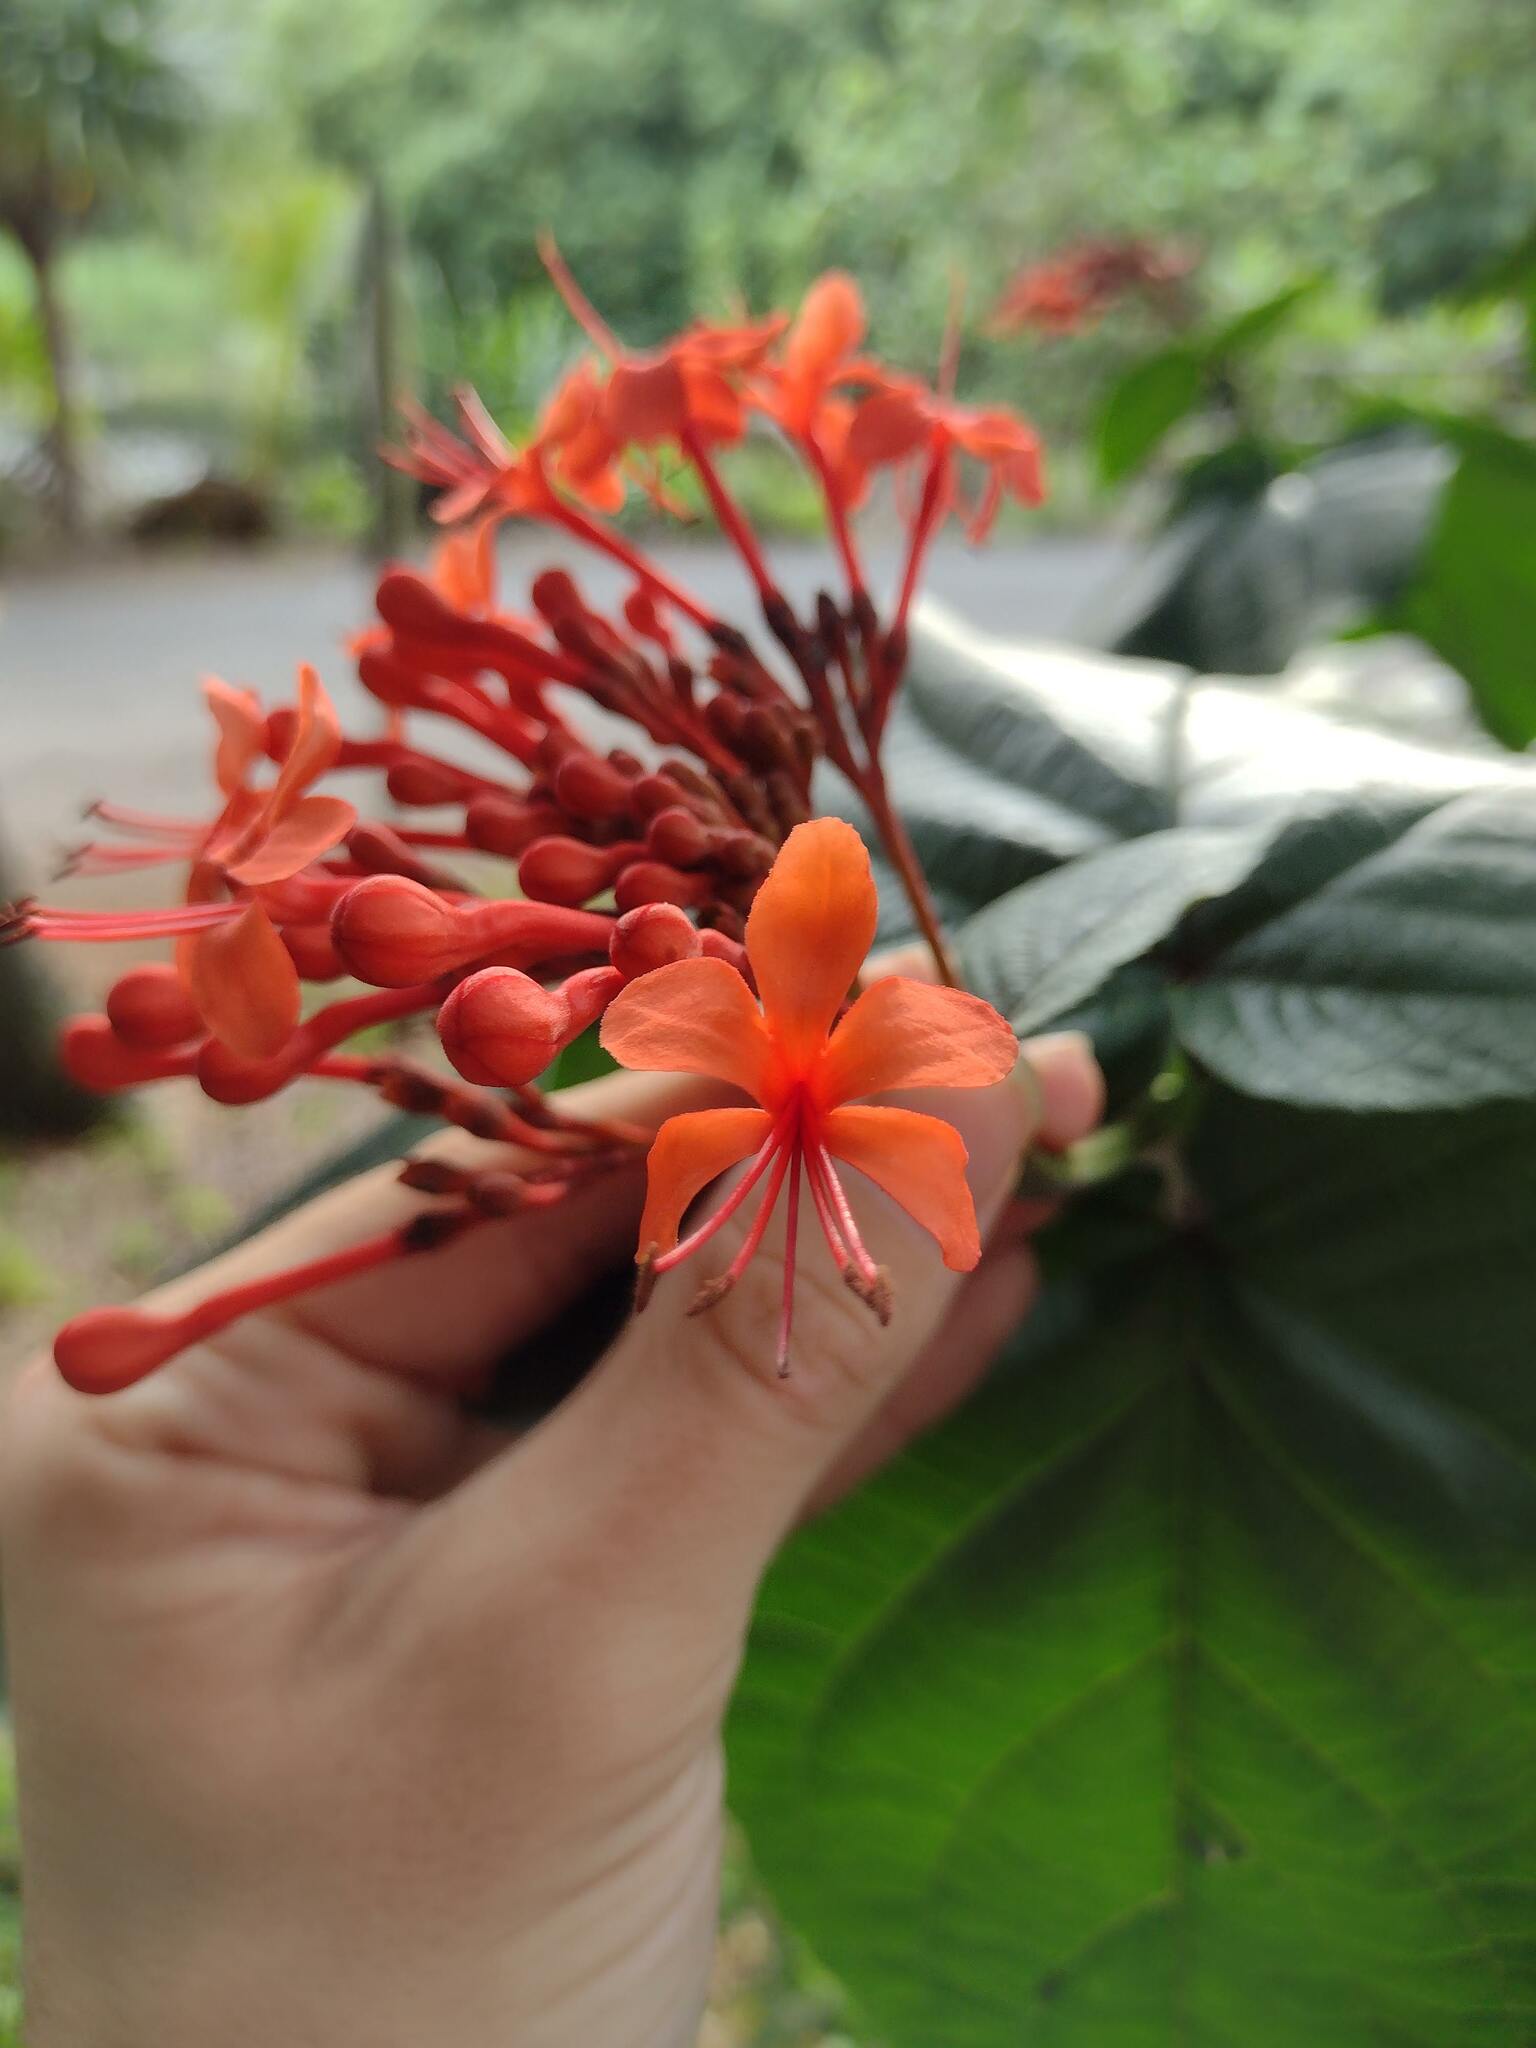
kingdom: Plantae
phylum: Tracheophyta
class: Magnoliopsida
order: Lamiales
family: Lamiaceae
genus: Clerodendrum
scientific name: Clerodendrum speciosissimum
